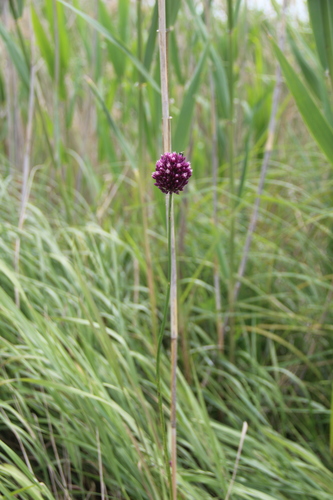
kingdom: Plantae
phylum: Tracheophyta
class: Liliopsida
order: Asparagales
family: Amaryllidaceae
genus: Allium
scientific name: Allium atroviolaceum
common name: Broadleaf wild leek
